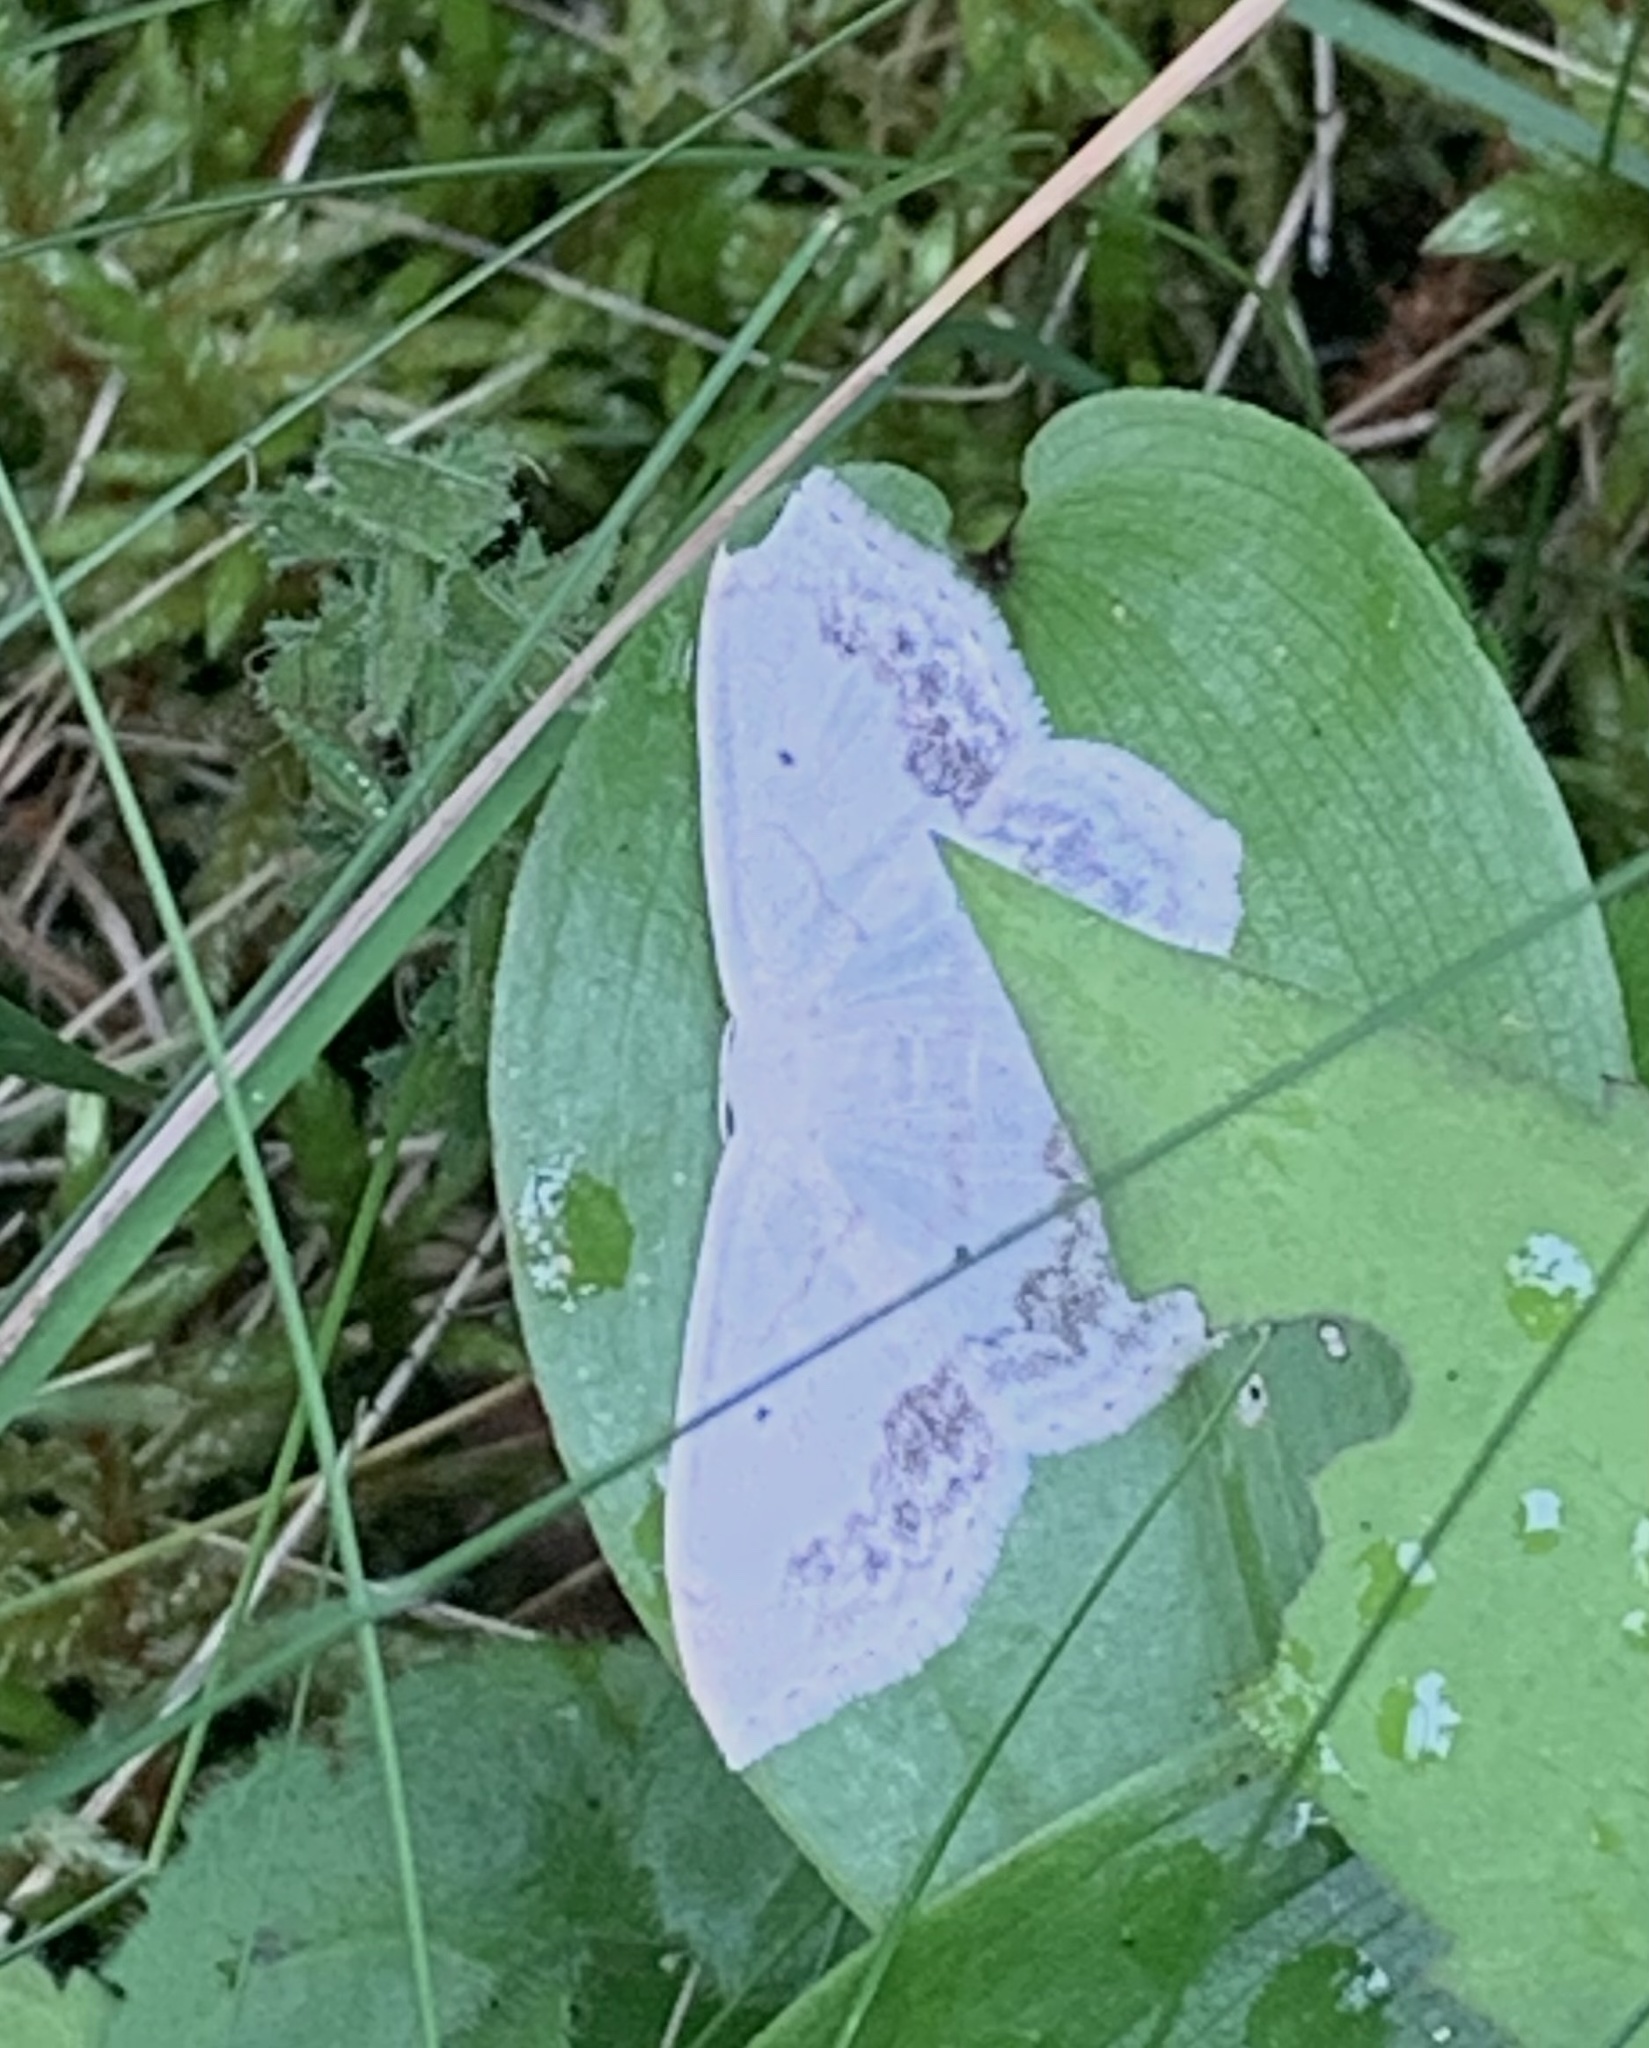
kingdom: Animalia
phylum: Arthropoda
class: Insecta
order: Lepidoptera
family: Geometridae
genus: Scopula
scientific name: Scopula limboundata
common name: Large lace border
